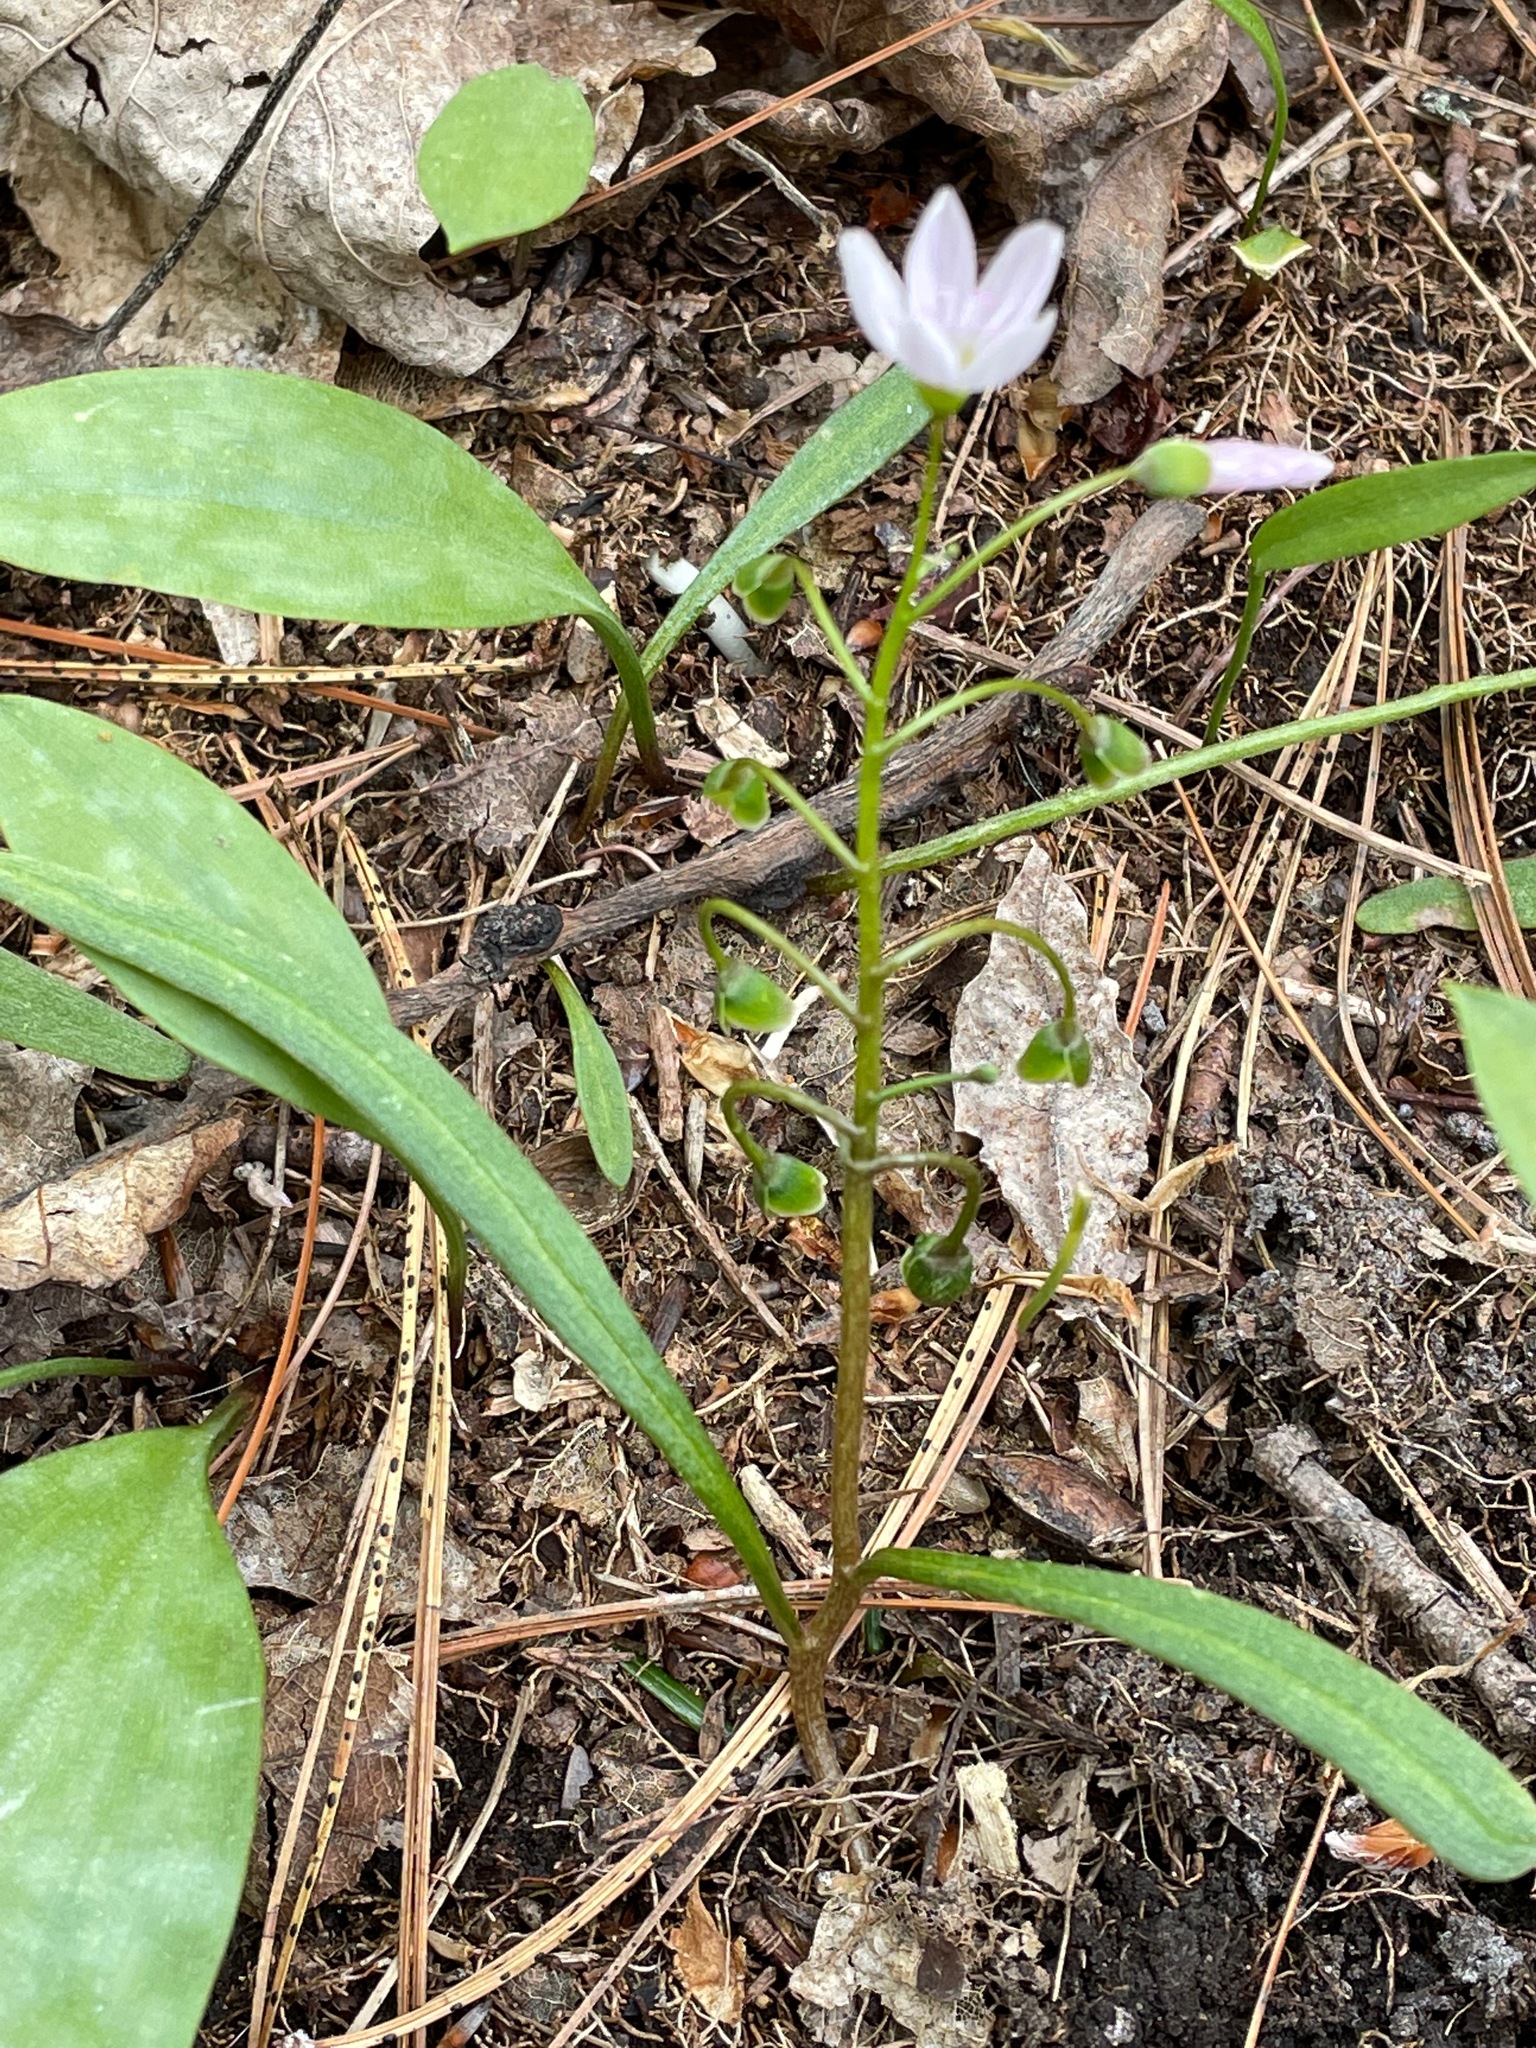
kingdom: Plantae
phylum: Tracheophyta
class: Magnoliopsida
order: Caryophyllales
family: Montiaceae
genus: Claytonia
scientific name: Claytonia virginica
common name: Virginia springbeauty
